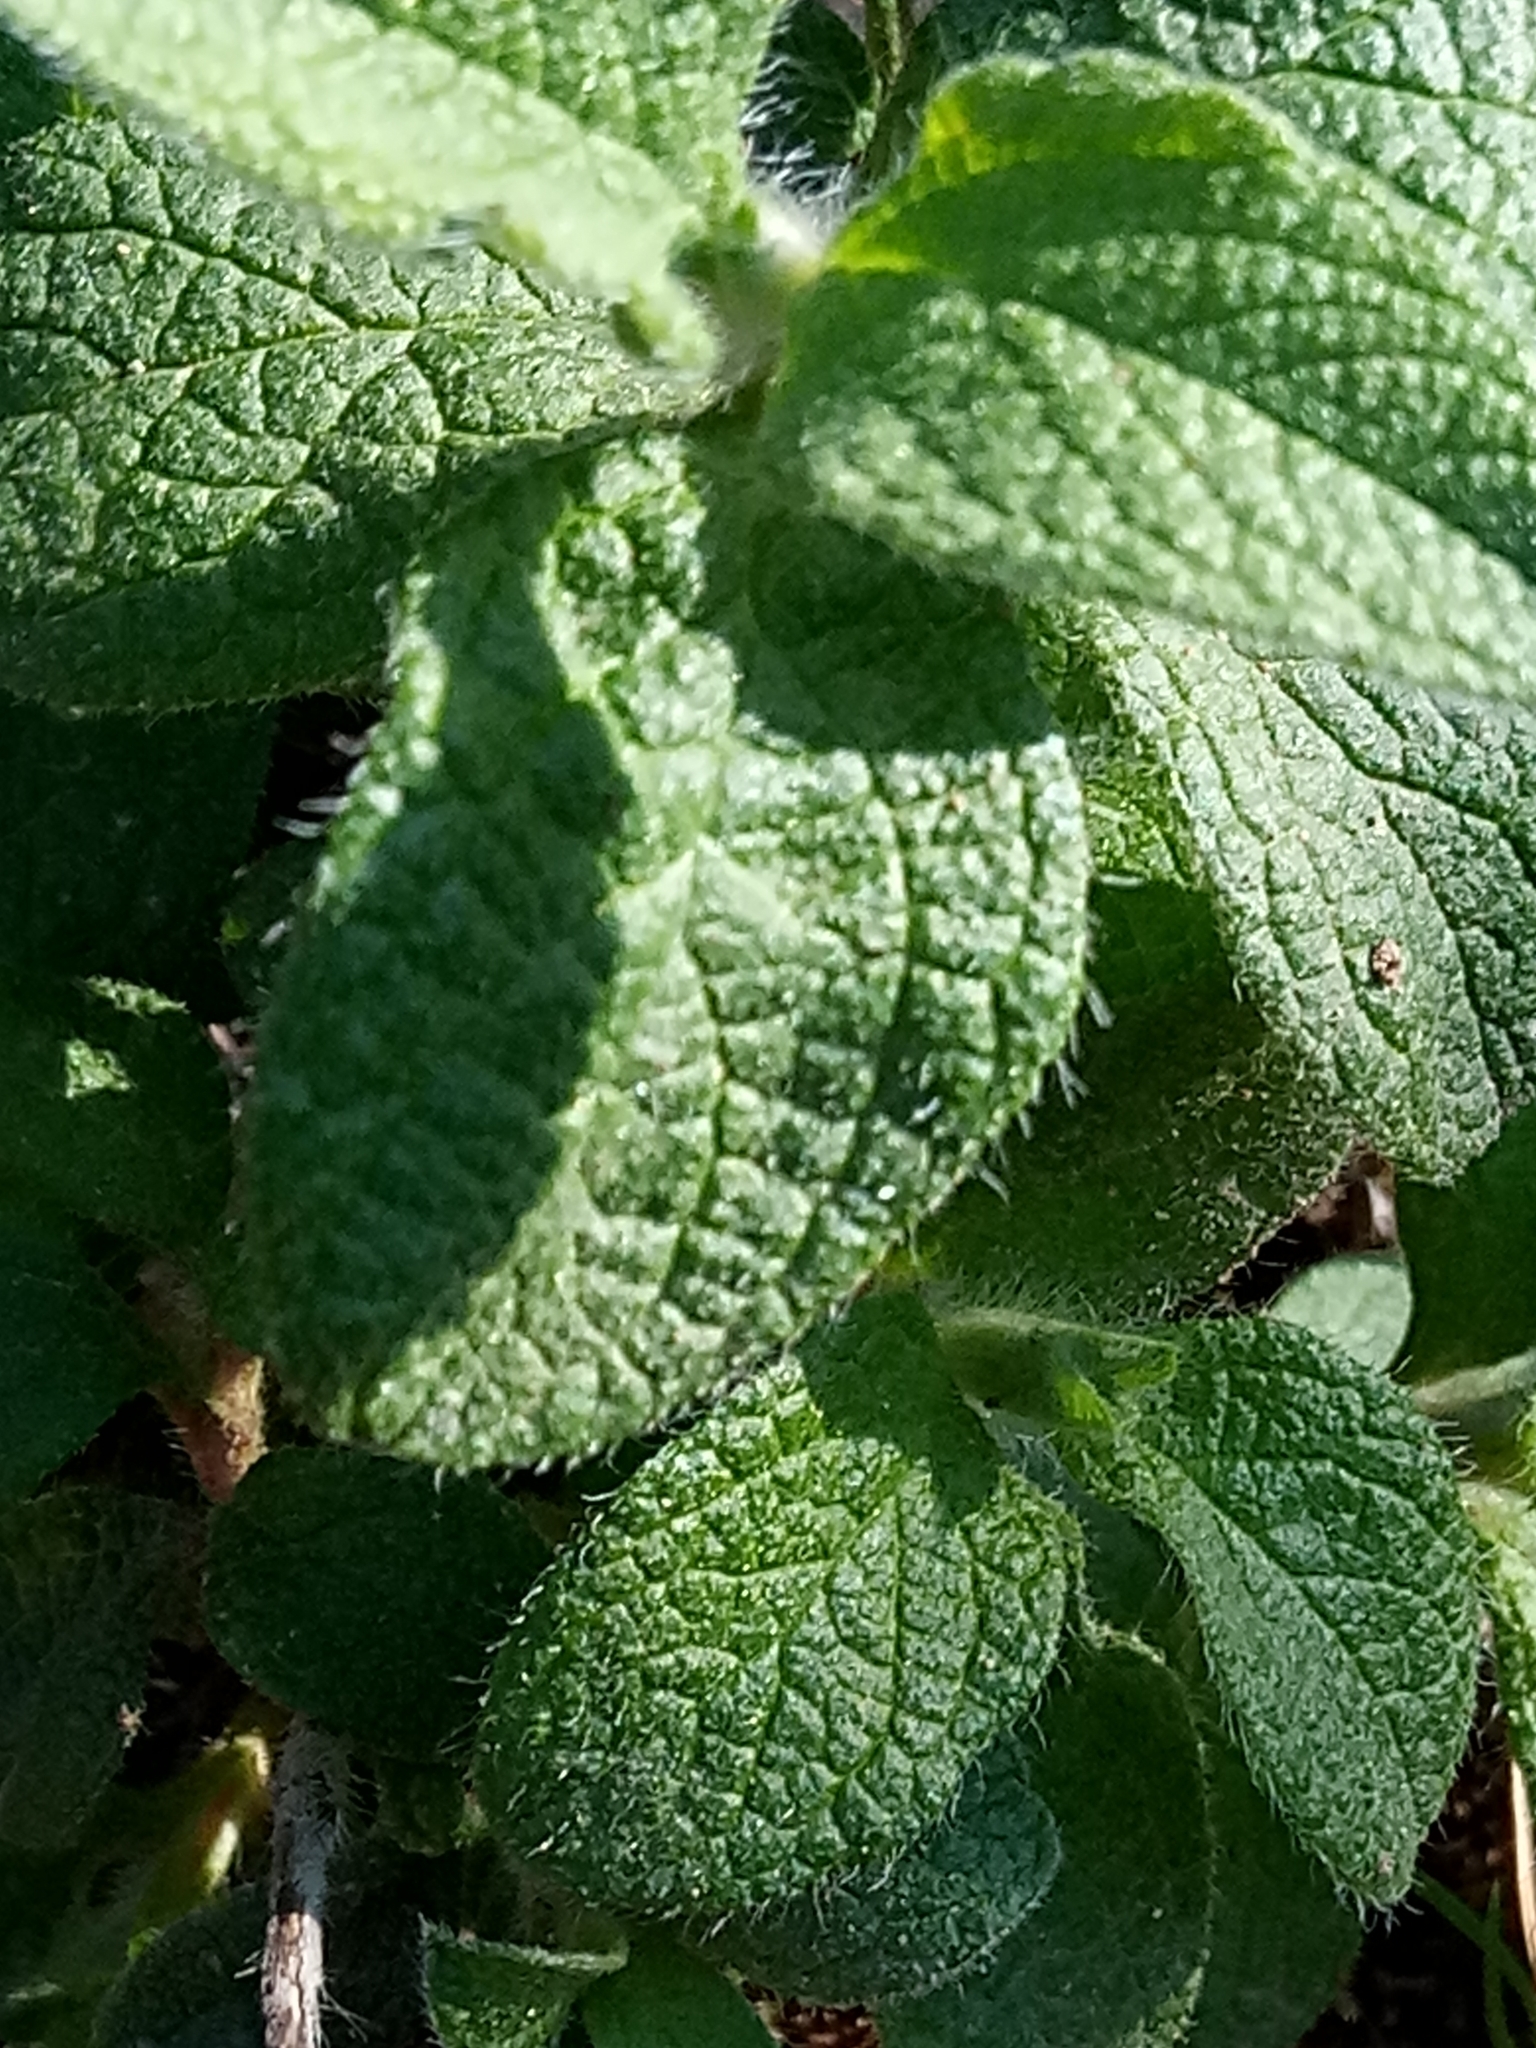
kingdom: Plantae
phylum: Tracheophyta
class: Magnoliopsida
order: Malvales
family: Cistaceae
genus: Cistus
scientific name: Cistus creticus
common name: Cretan rockrose
